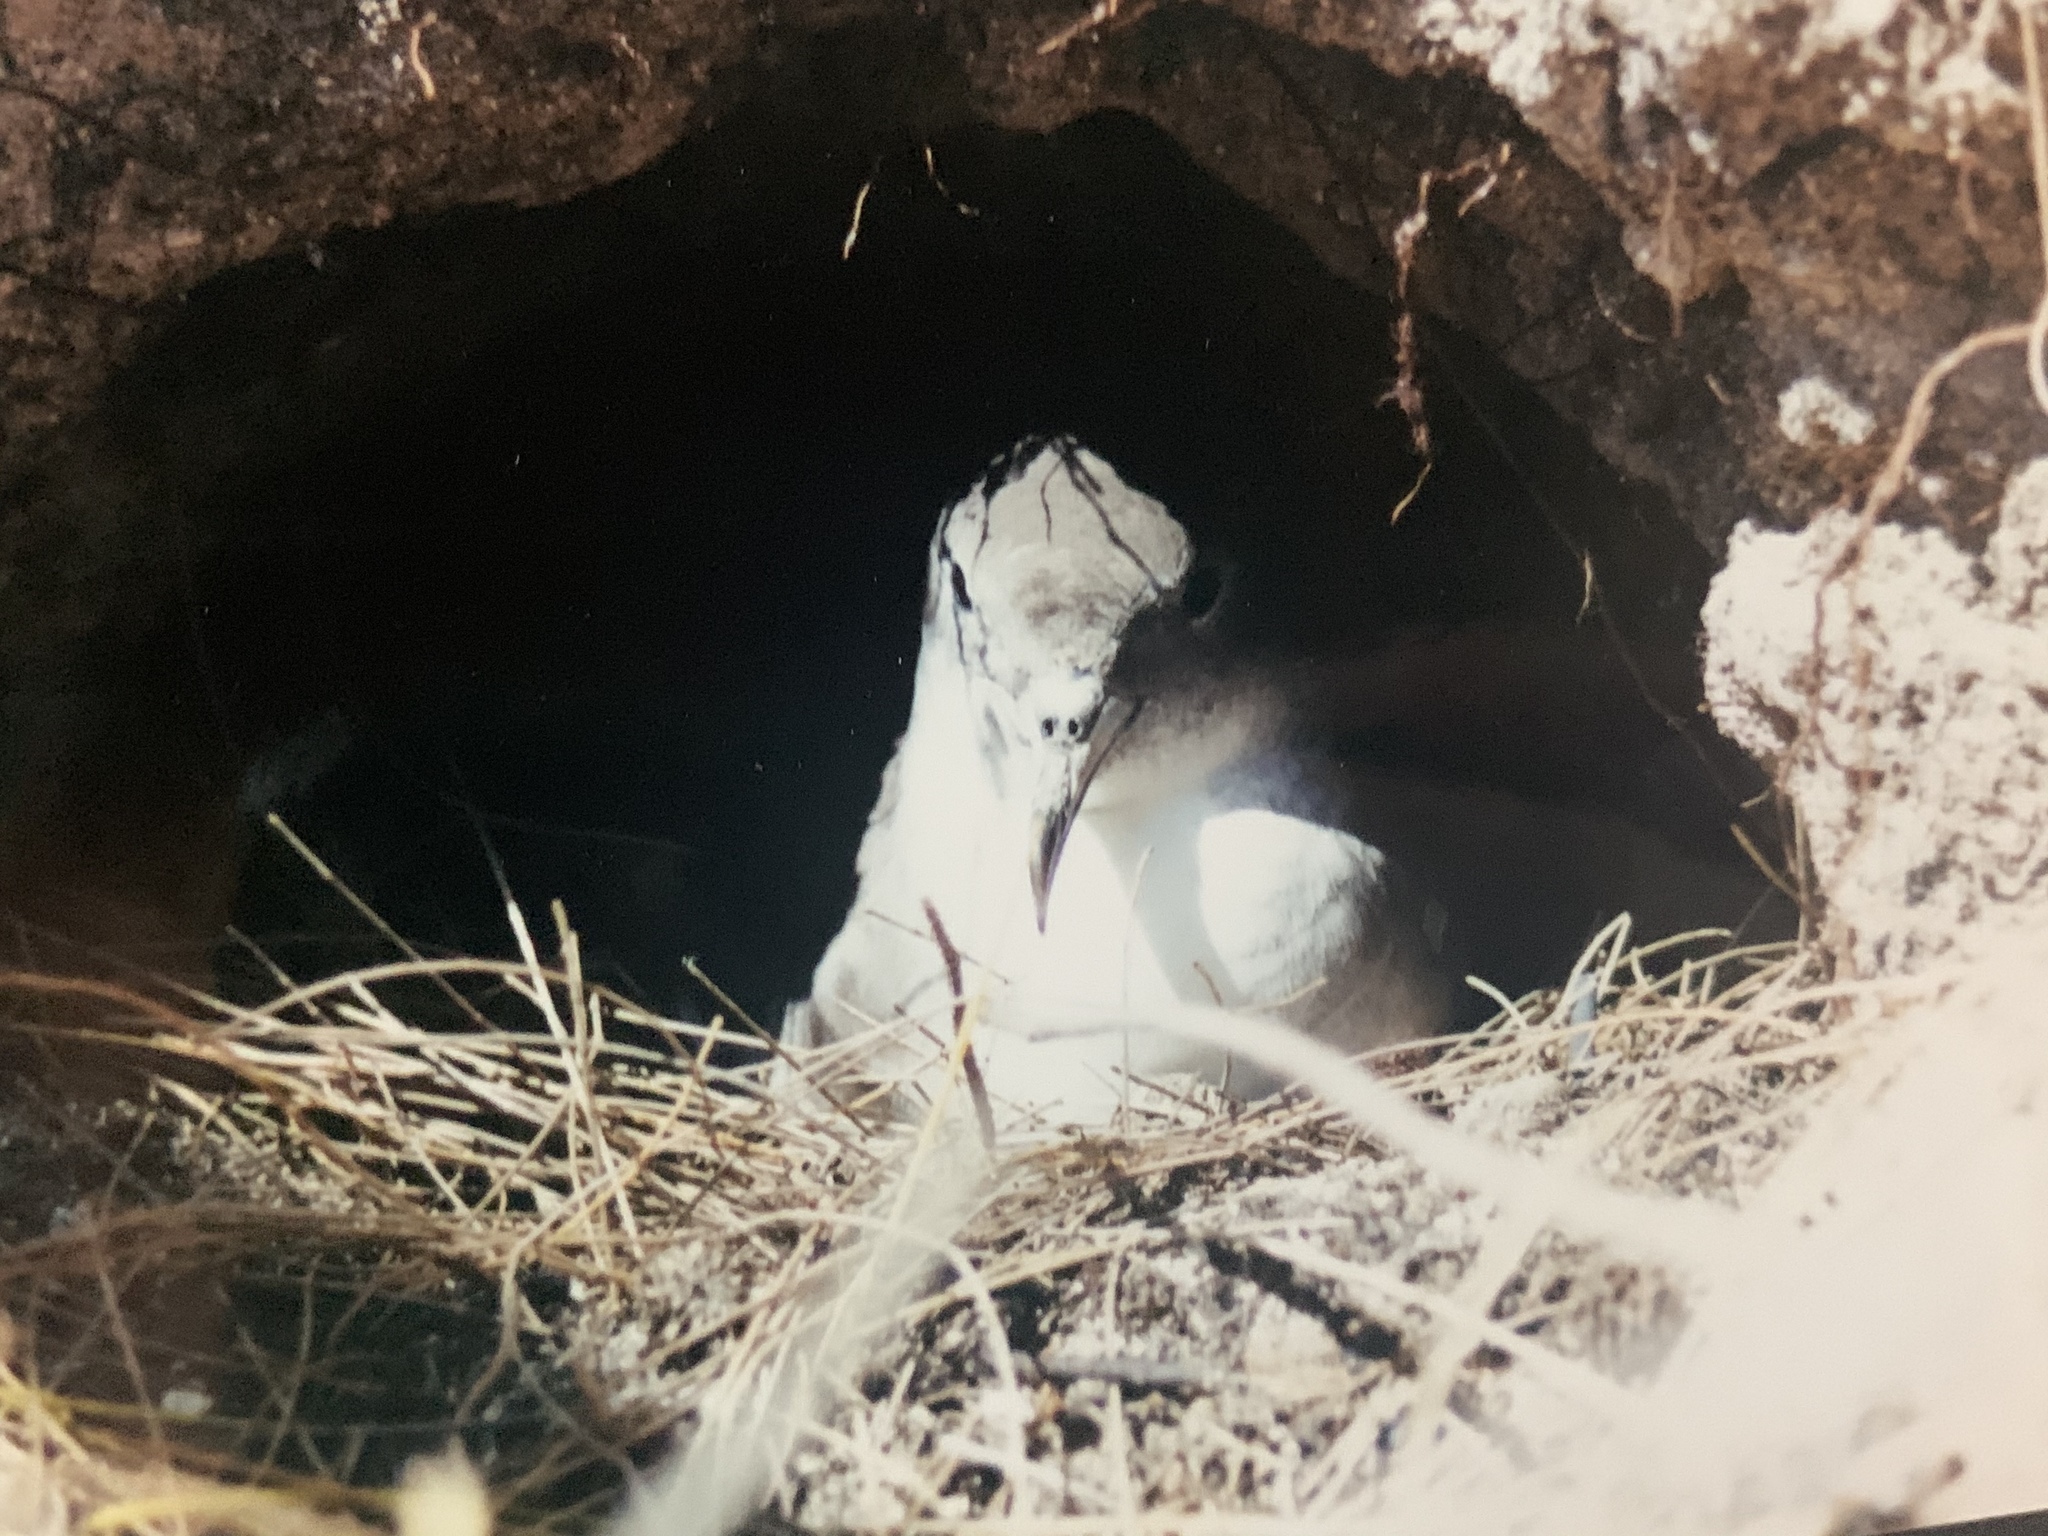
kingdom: Animalia
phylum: Chordata
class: Aves
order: Procellariiformes
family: Procellariidae
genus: Puffinus
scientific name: Puffinus pacificus
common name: Wedge-tailed shearwater
